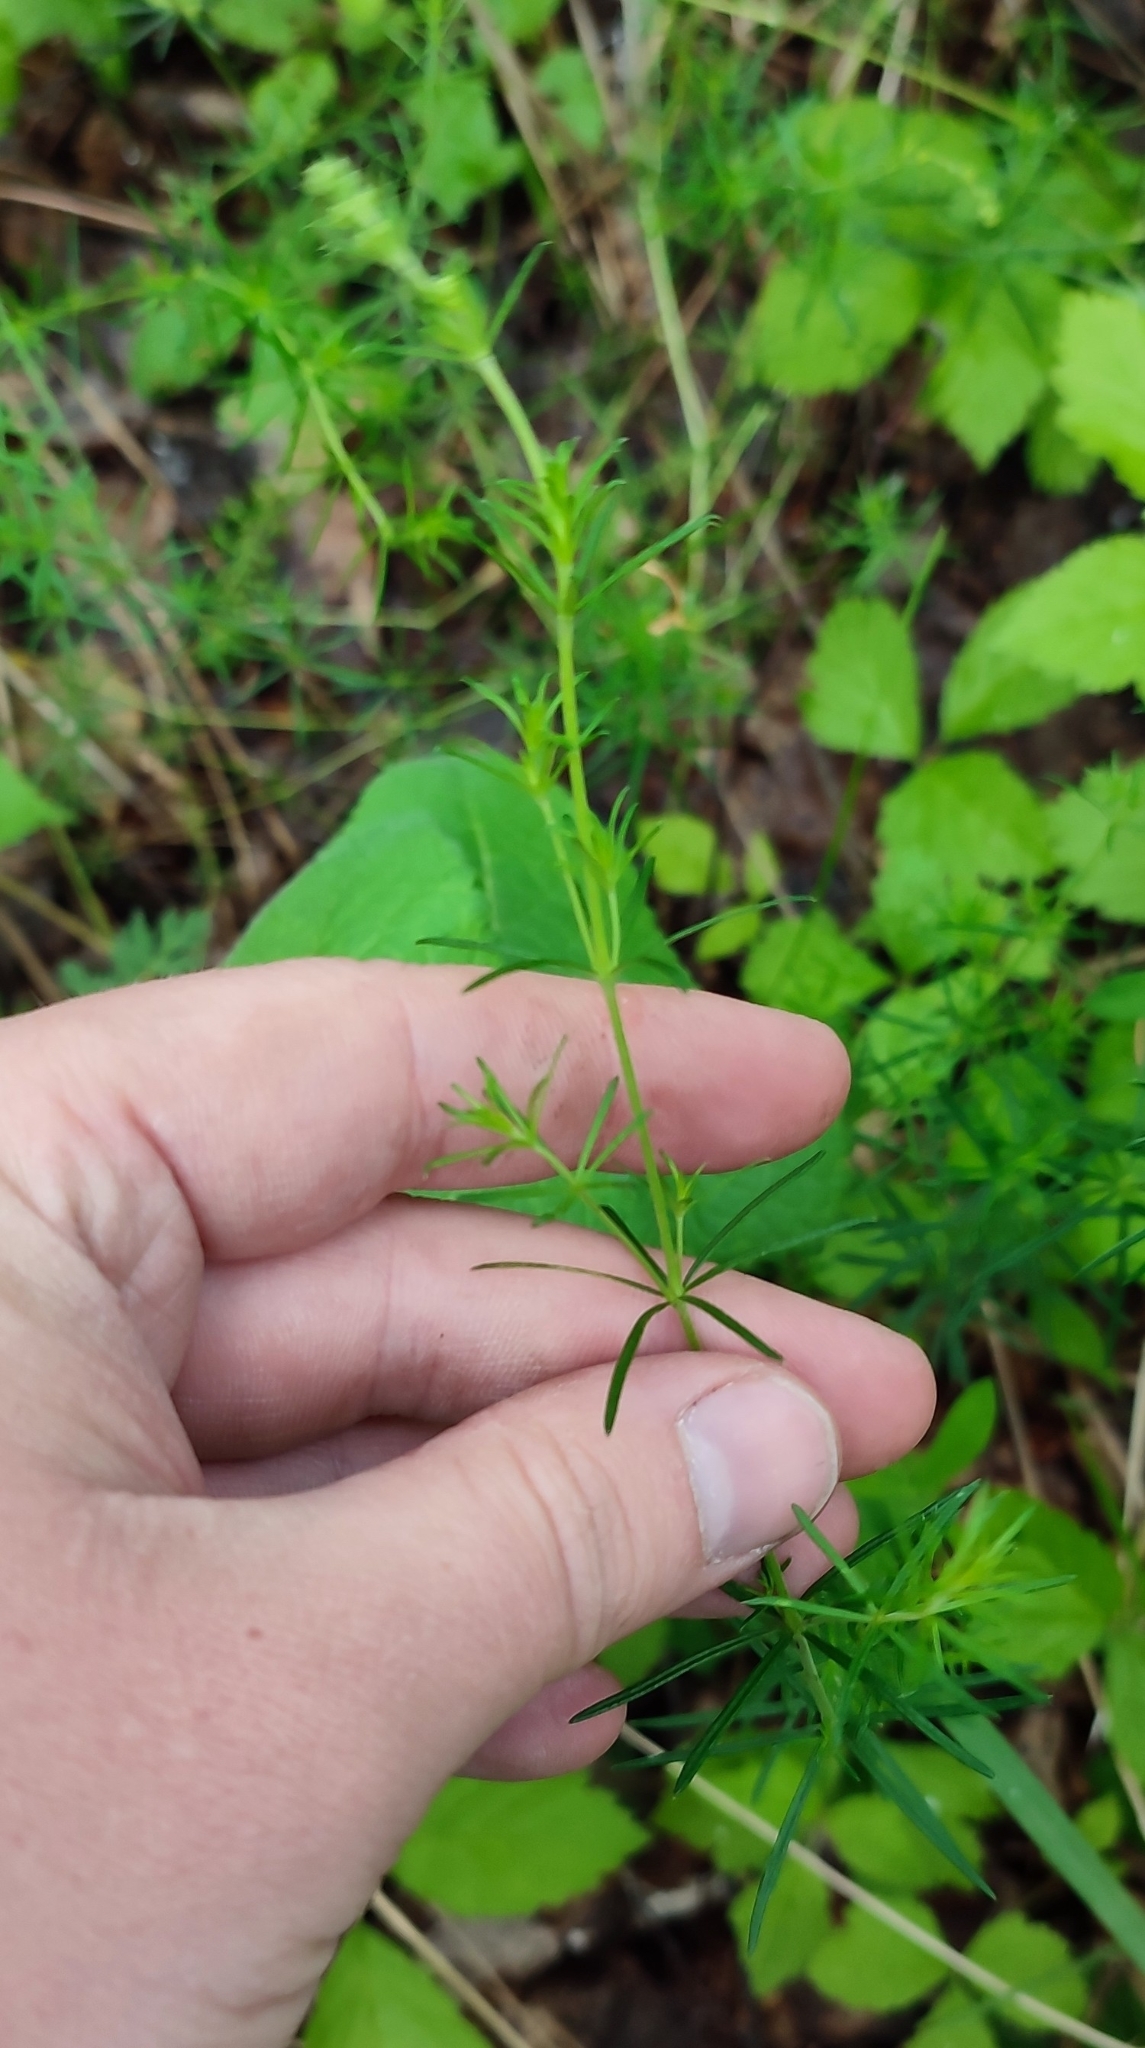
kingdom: Plantae
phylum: Tracheophyta
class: Magnoliopsida
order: Gentianales
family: Rubiaceae
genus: Galium
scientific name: Galium verum
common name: Lady's bedstraw
